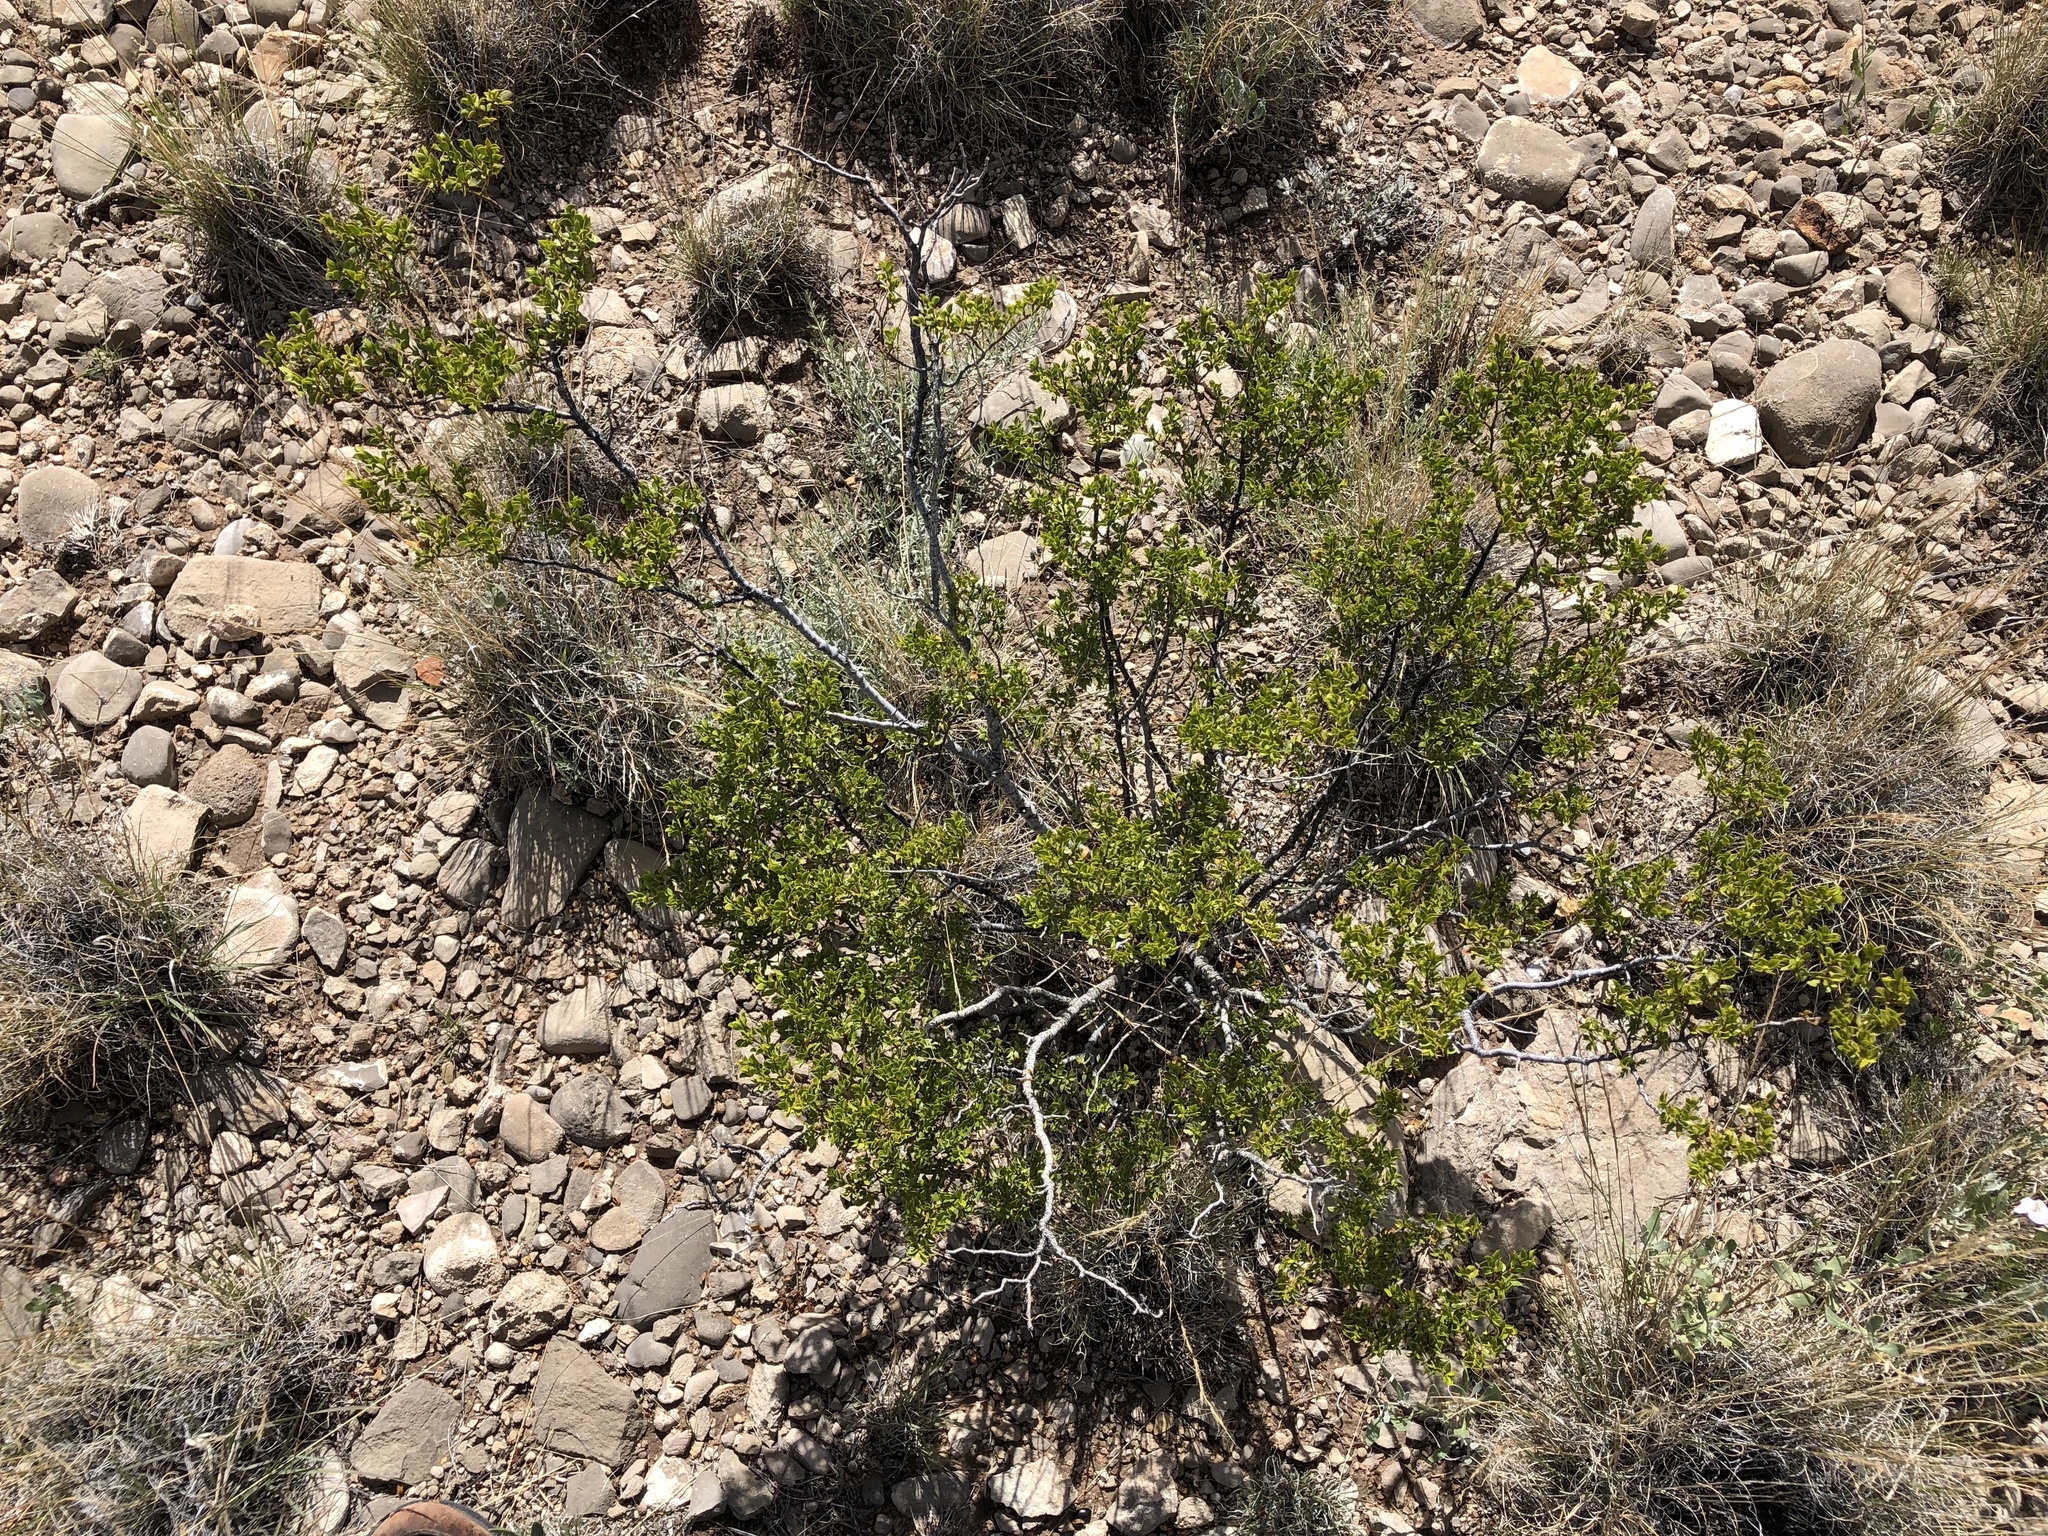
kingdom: Plantae
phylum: Tracheophyta
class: Magnoliopsida
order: Zygophyllales
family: Zygophyllaceae
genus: Larrea
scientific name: Larrea tridentata
